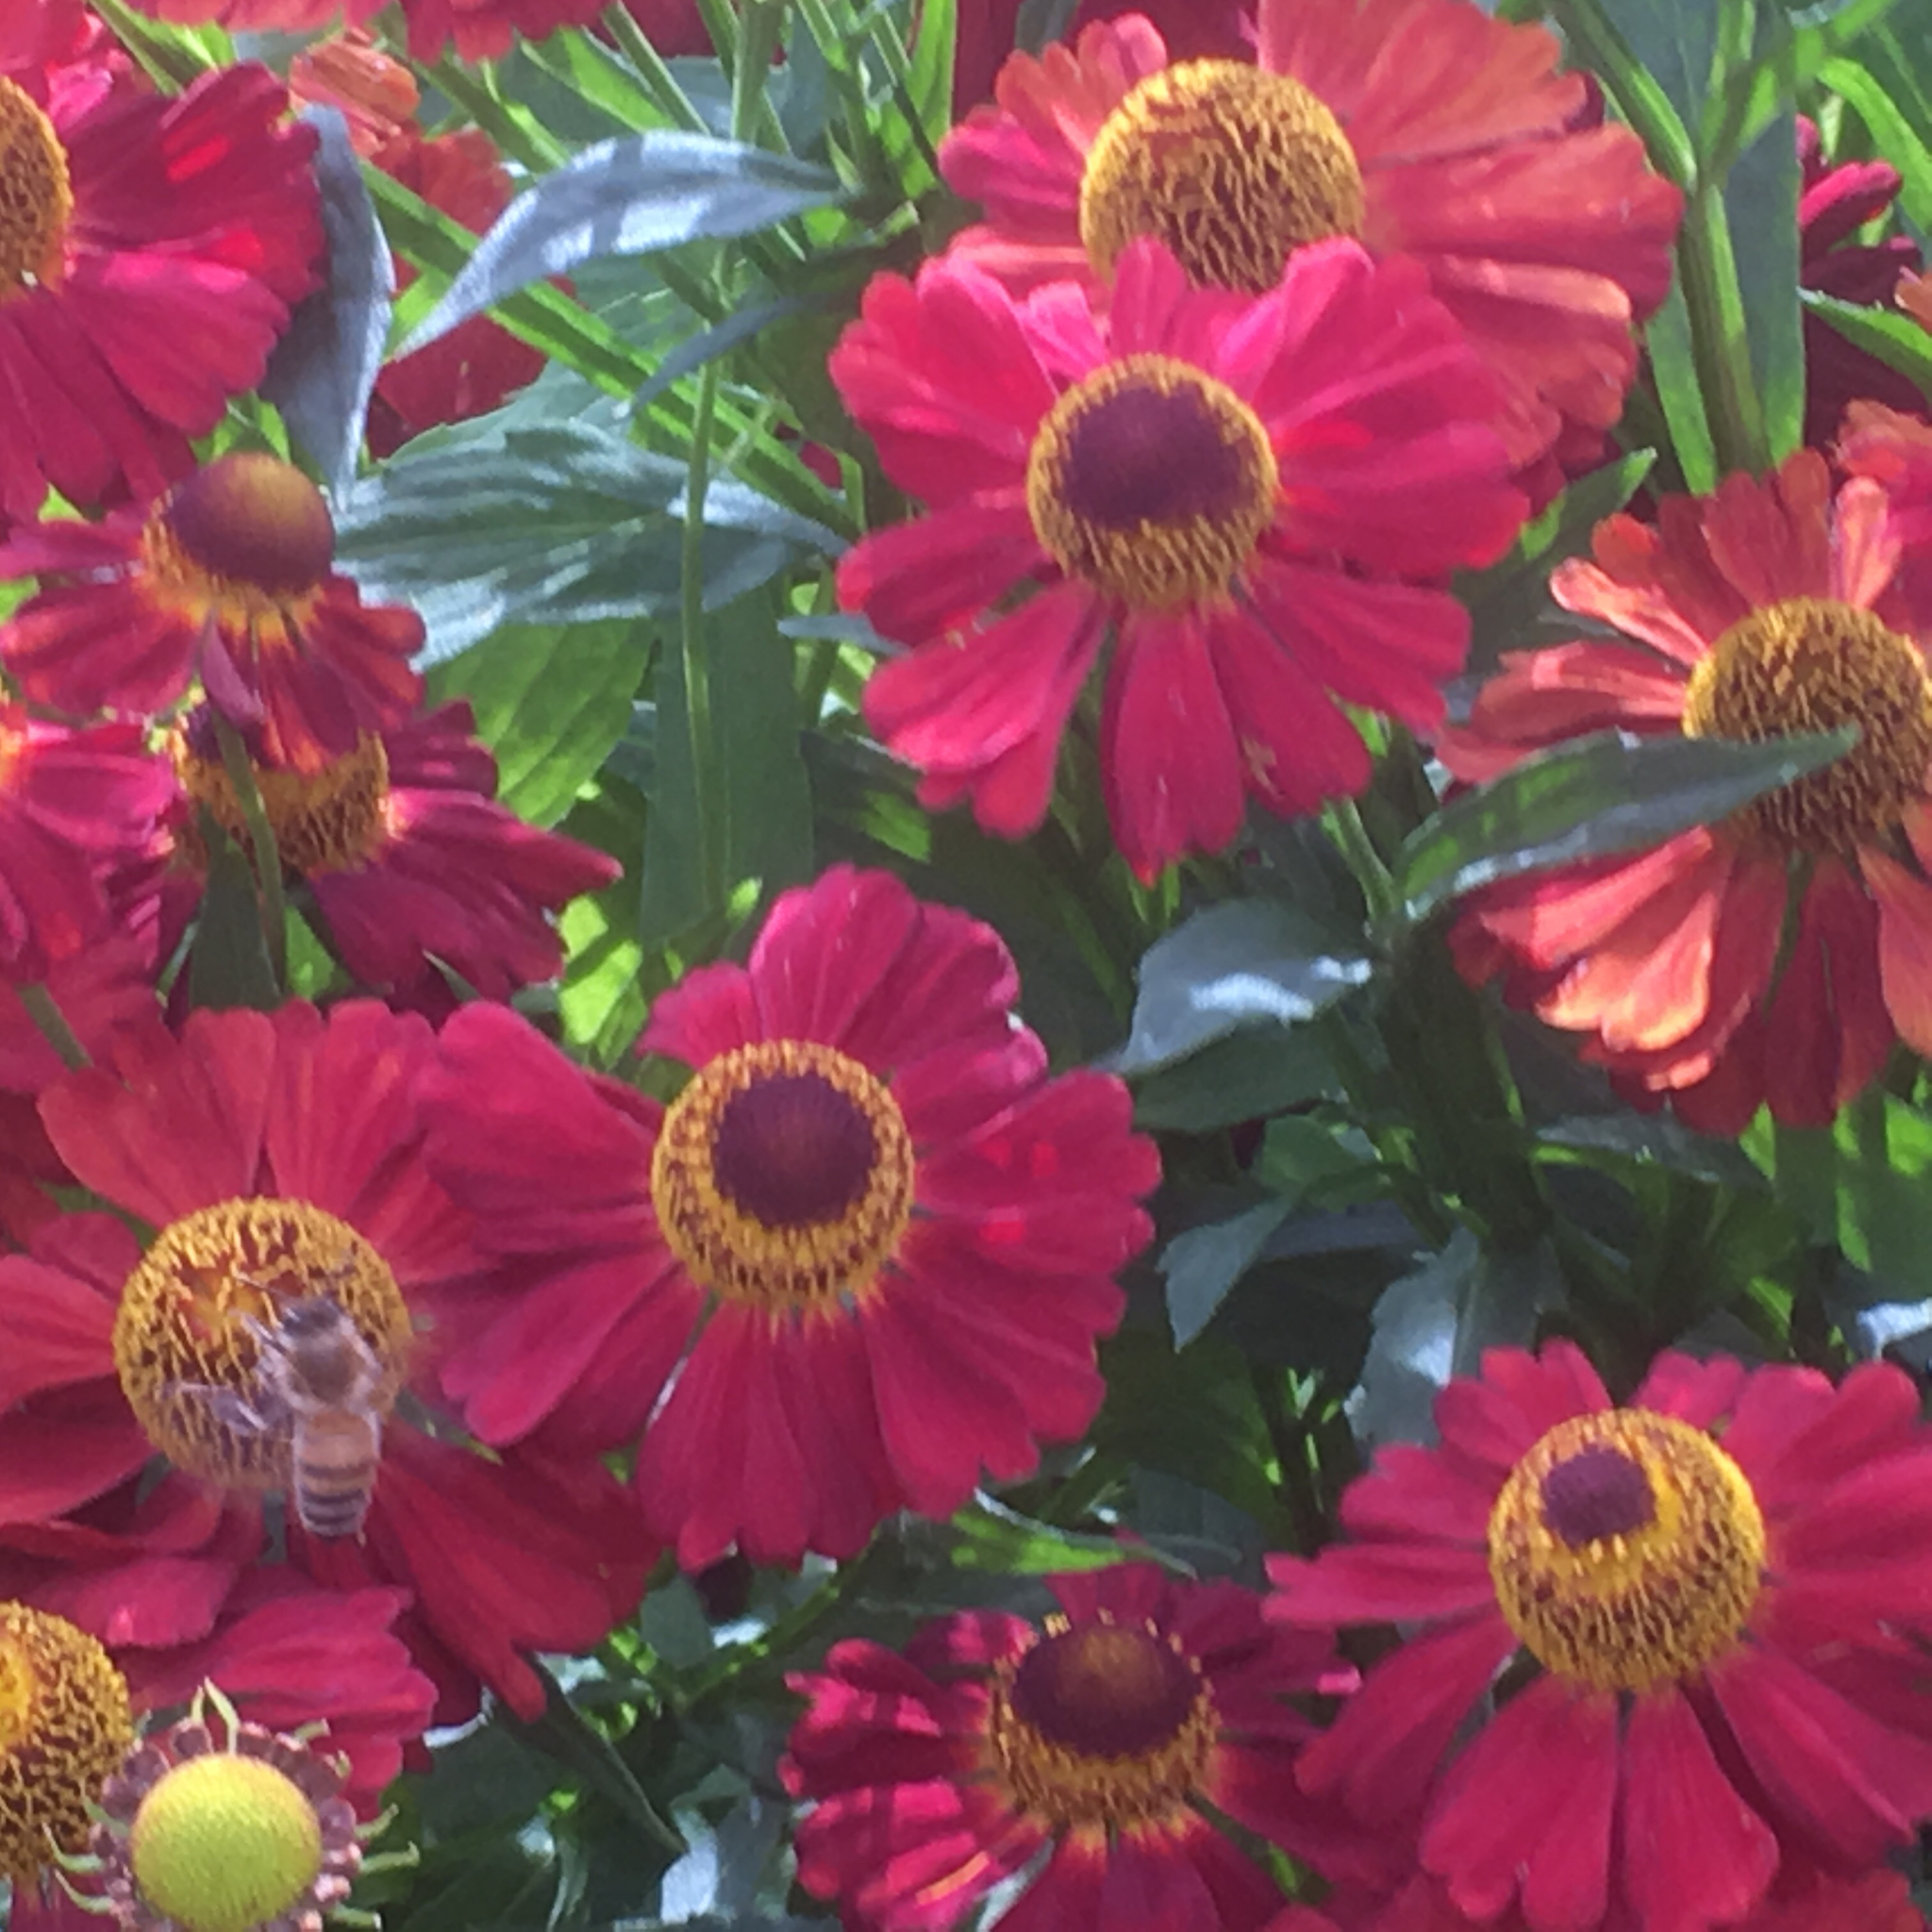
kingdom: Animalia
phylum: Arthropoda
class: Insecta
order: Hymenoptera
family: Apidae
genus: Apis
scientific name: Apis mellifera
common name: Honey bee
